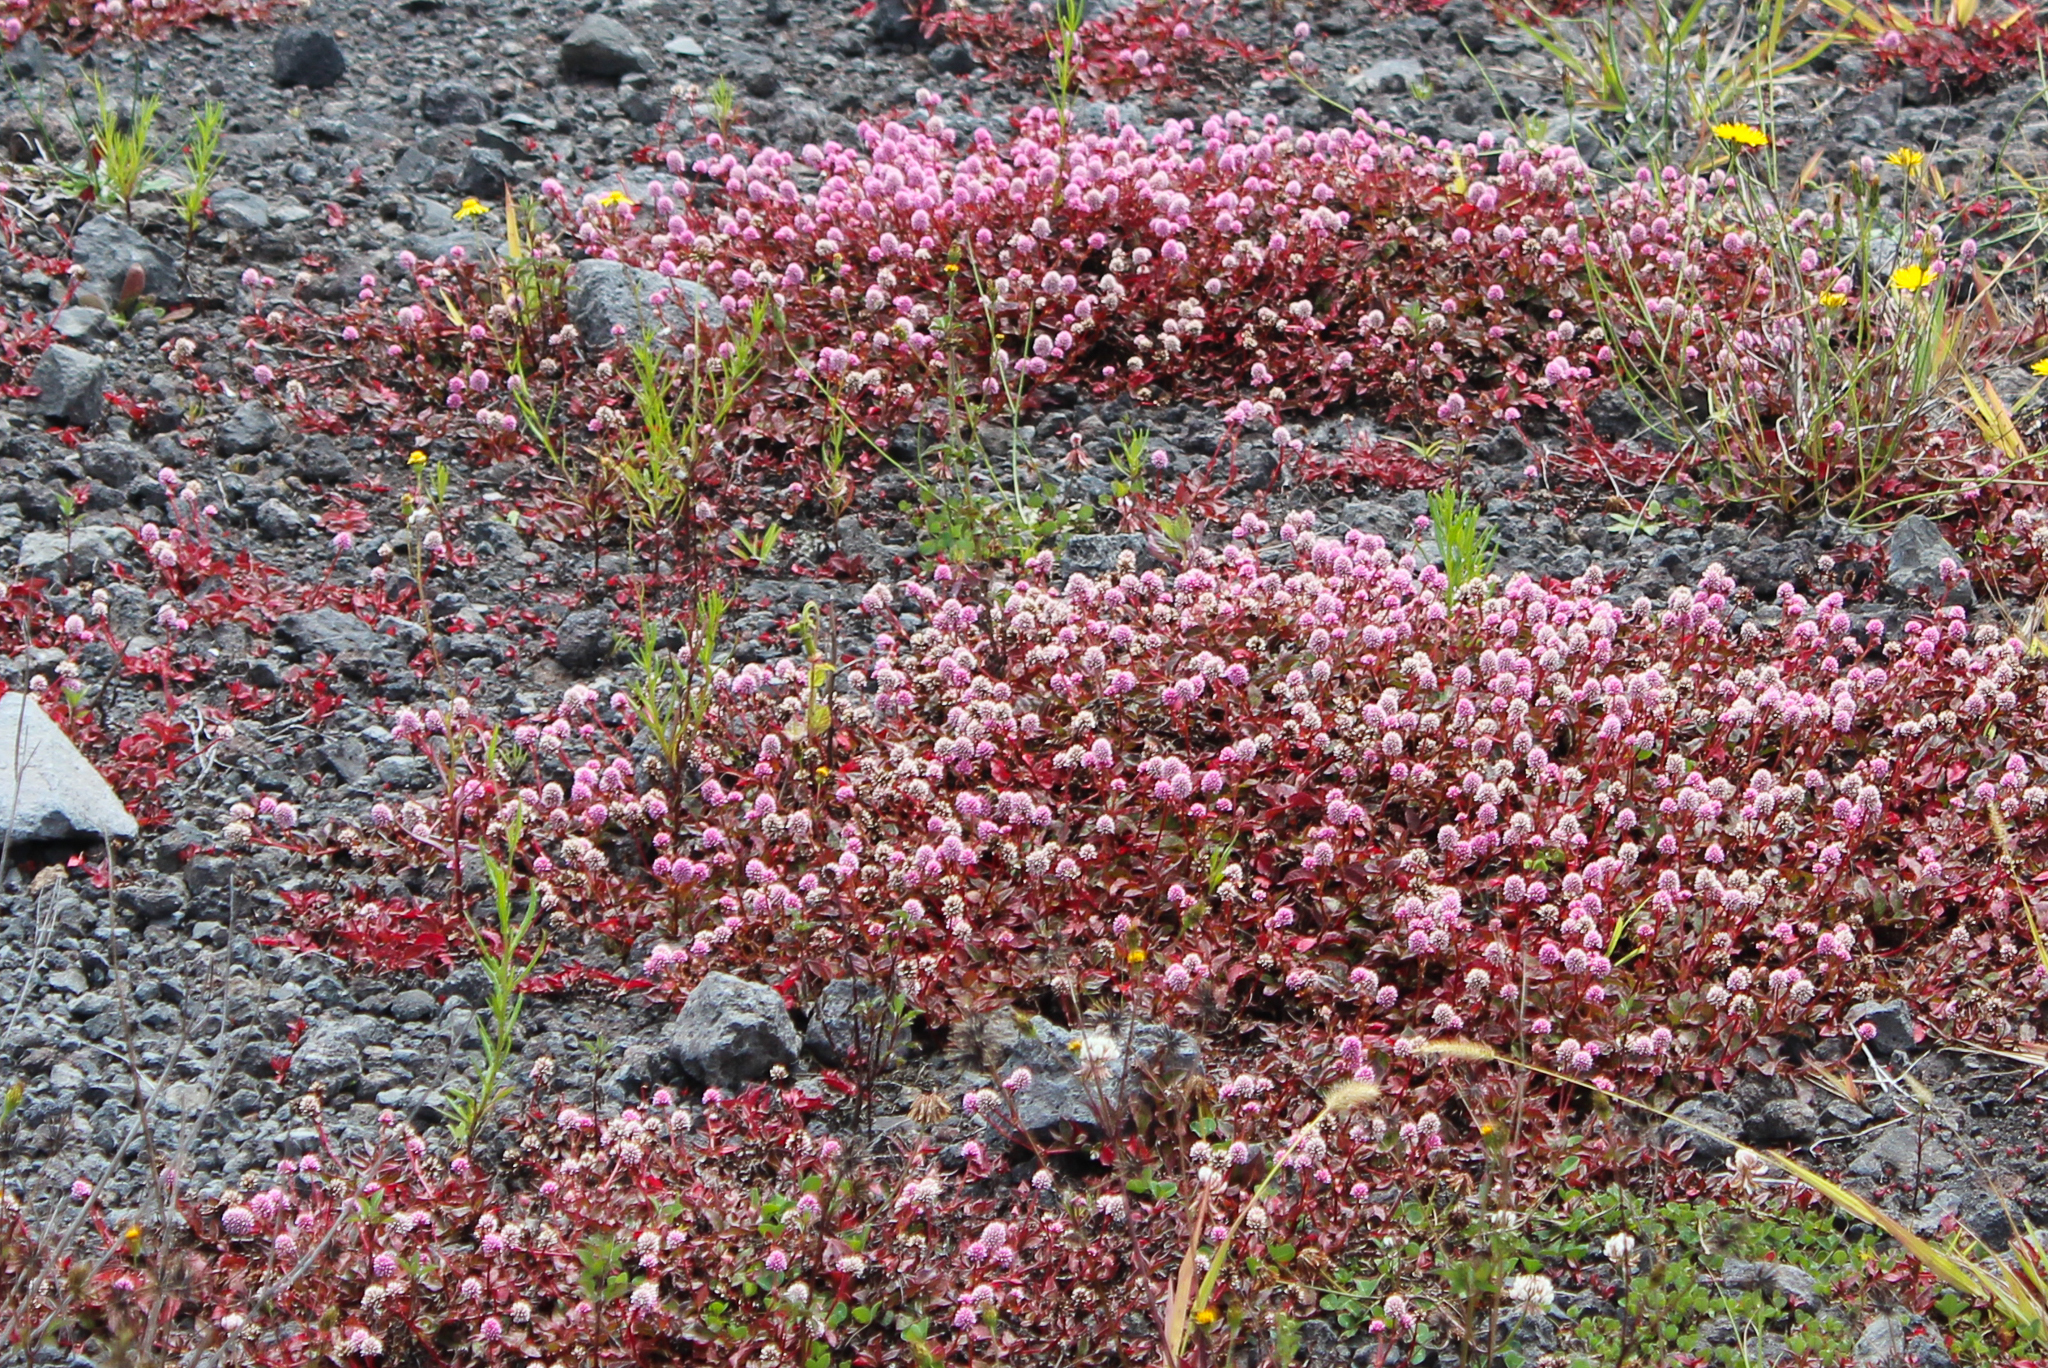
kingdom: Plantae
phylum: Tracheophyta
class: Magnoliopsida
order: Caryophyllales
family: Polygonaceae
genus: Persicaria
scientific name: Persicaria capitata
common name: Pinkhead smartweed
